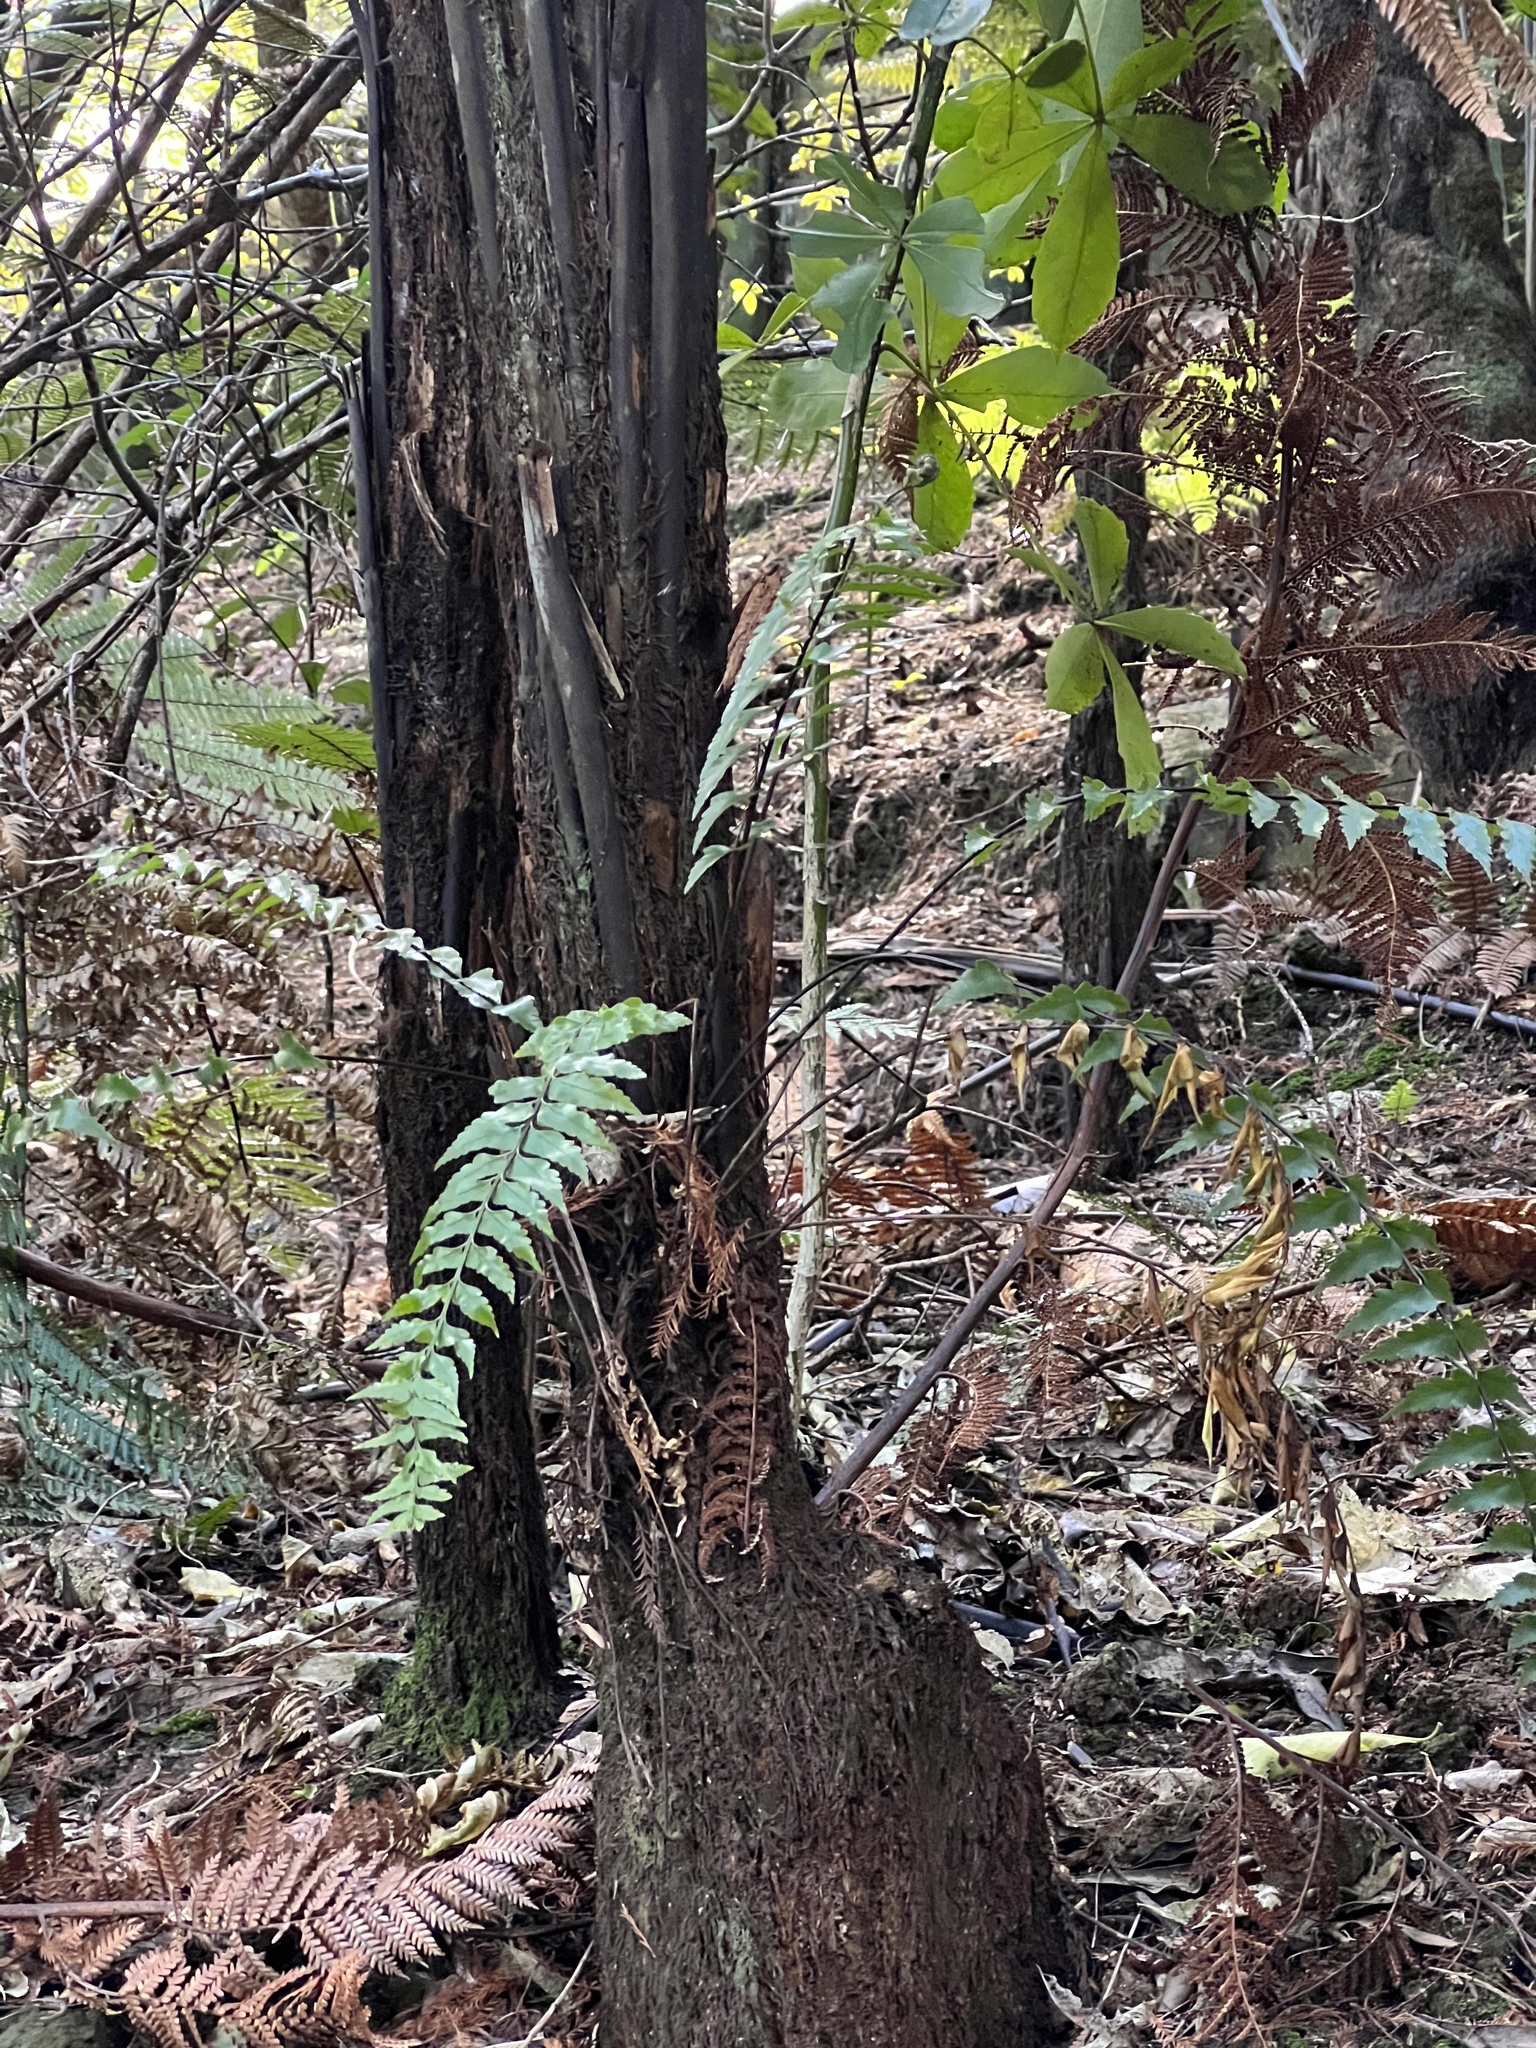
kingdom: Plantae
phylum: Tracheophyta
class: Polypodiopsida
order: Polypodiales
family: Aspleniaceae
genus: Asplenium
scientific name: Asplenium polyodon
